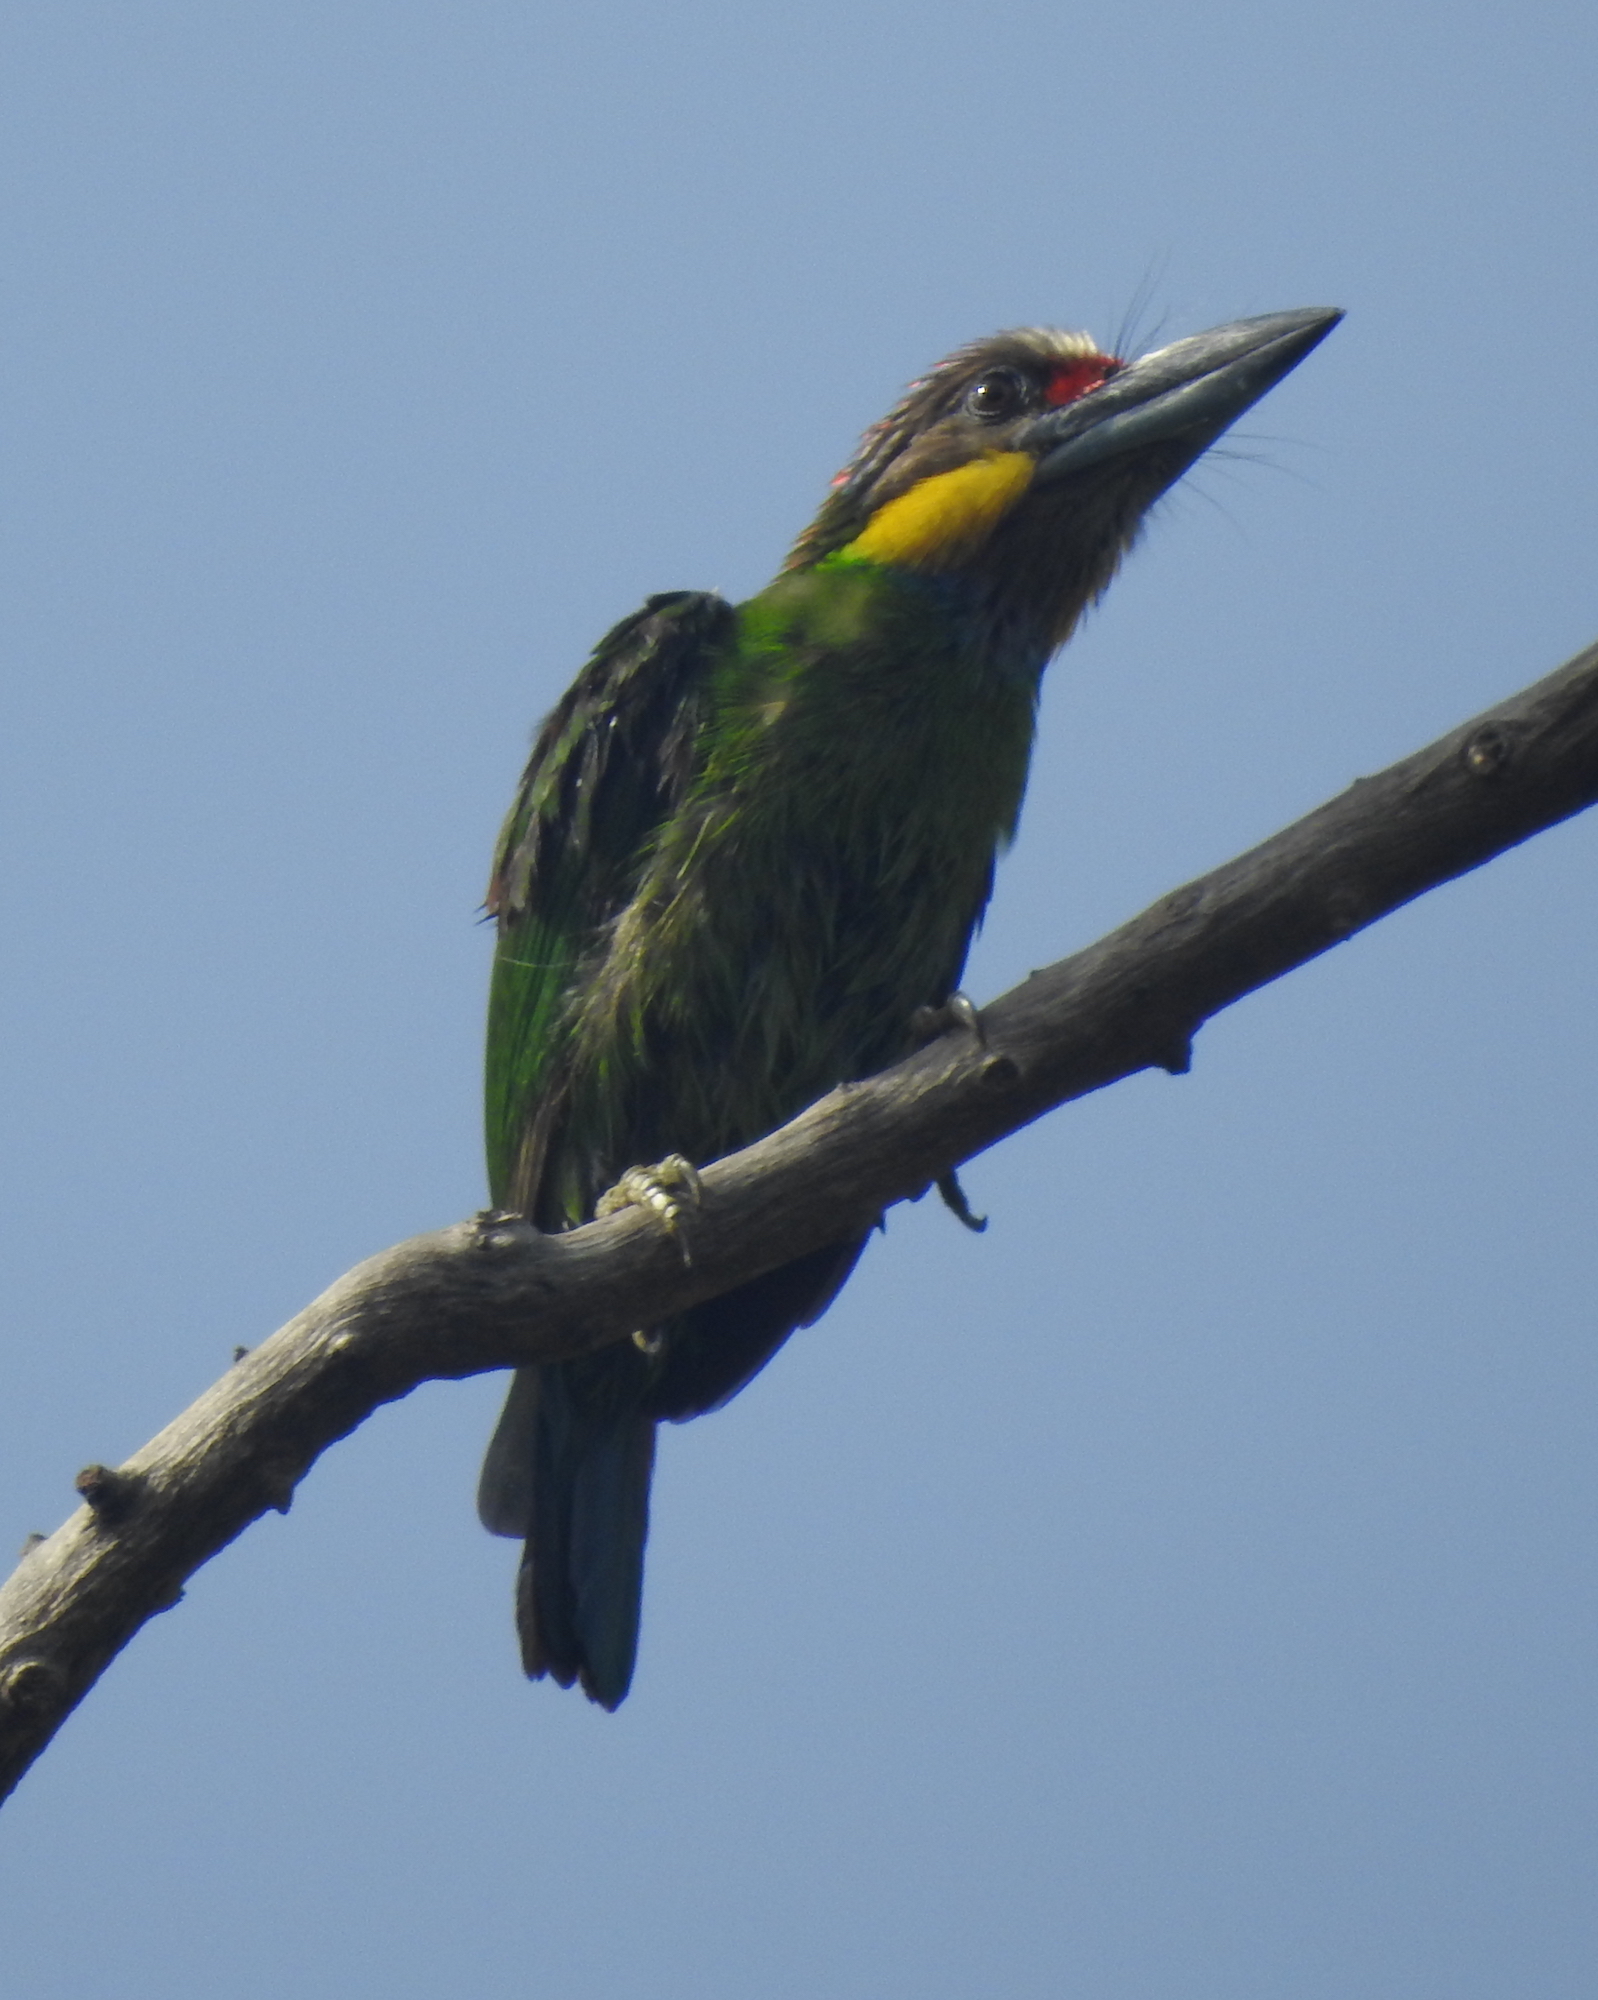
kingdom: Animalia
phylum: Chordata
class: Aves
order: Piciformes
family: Megalaimidae
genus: Psilopogon
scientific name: Psilopogon chrysopogon
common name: Golden-whiskered barbet
